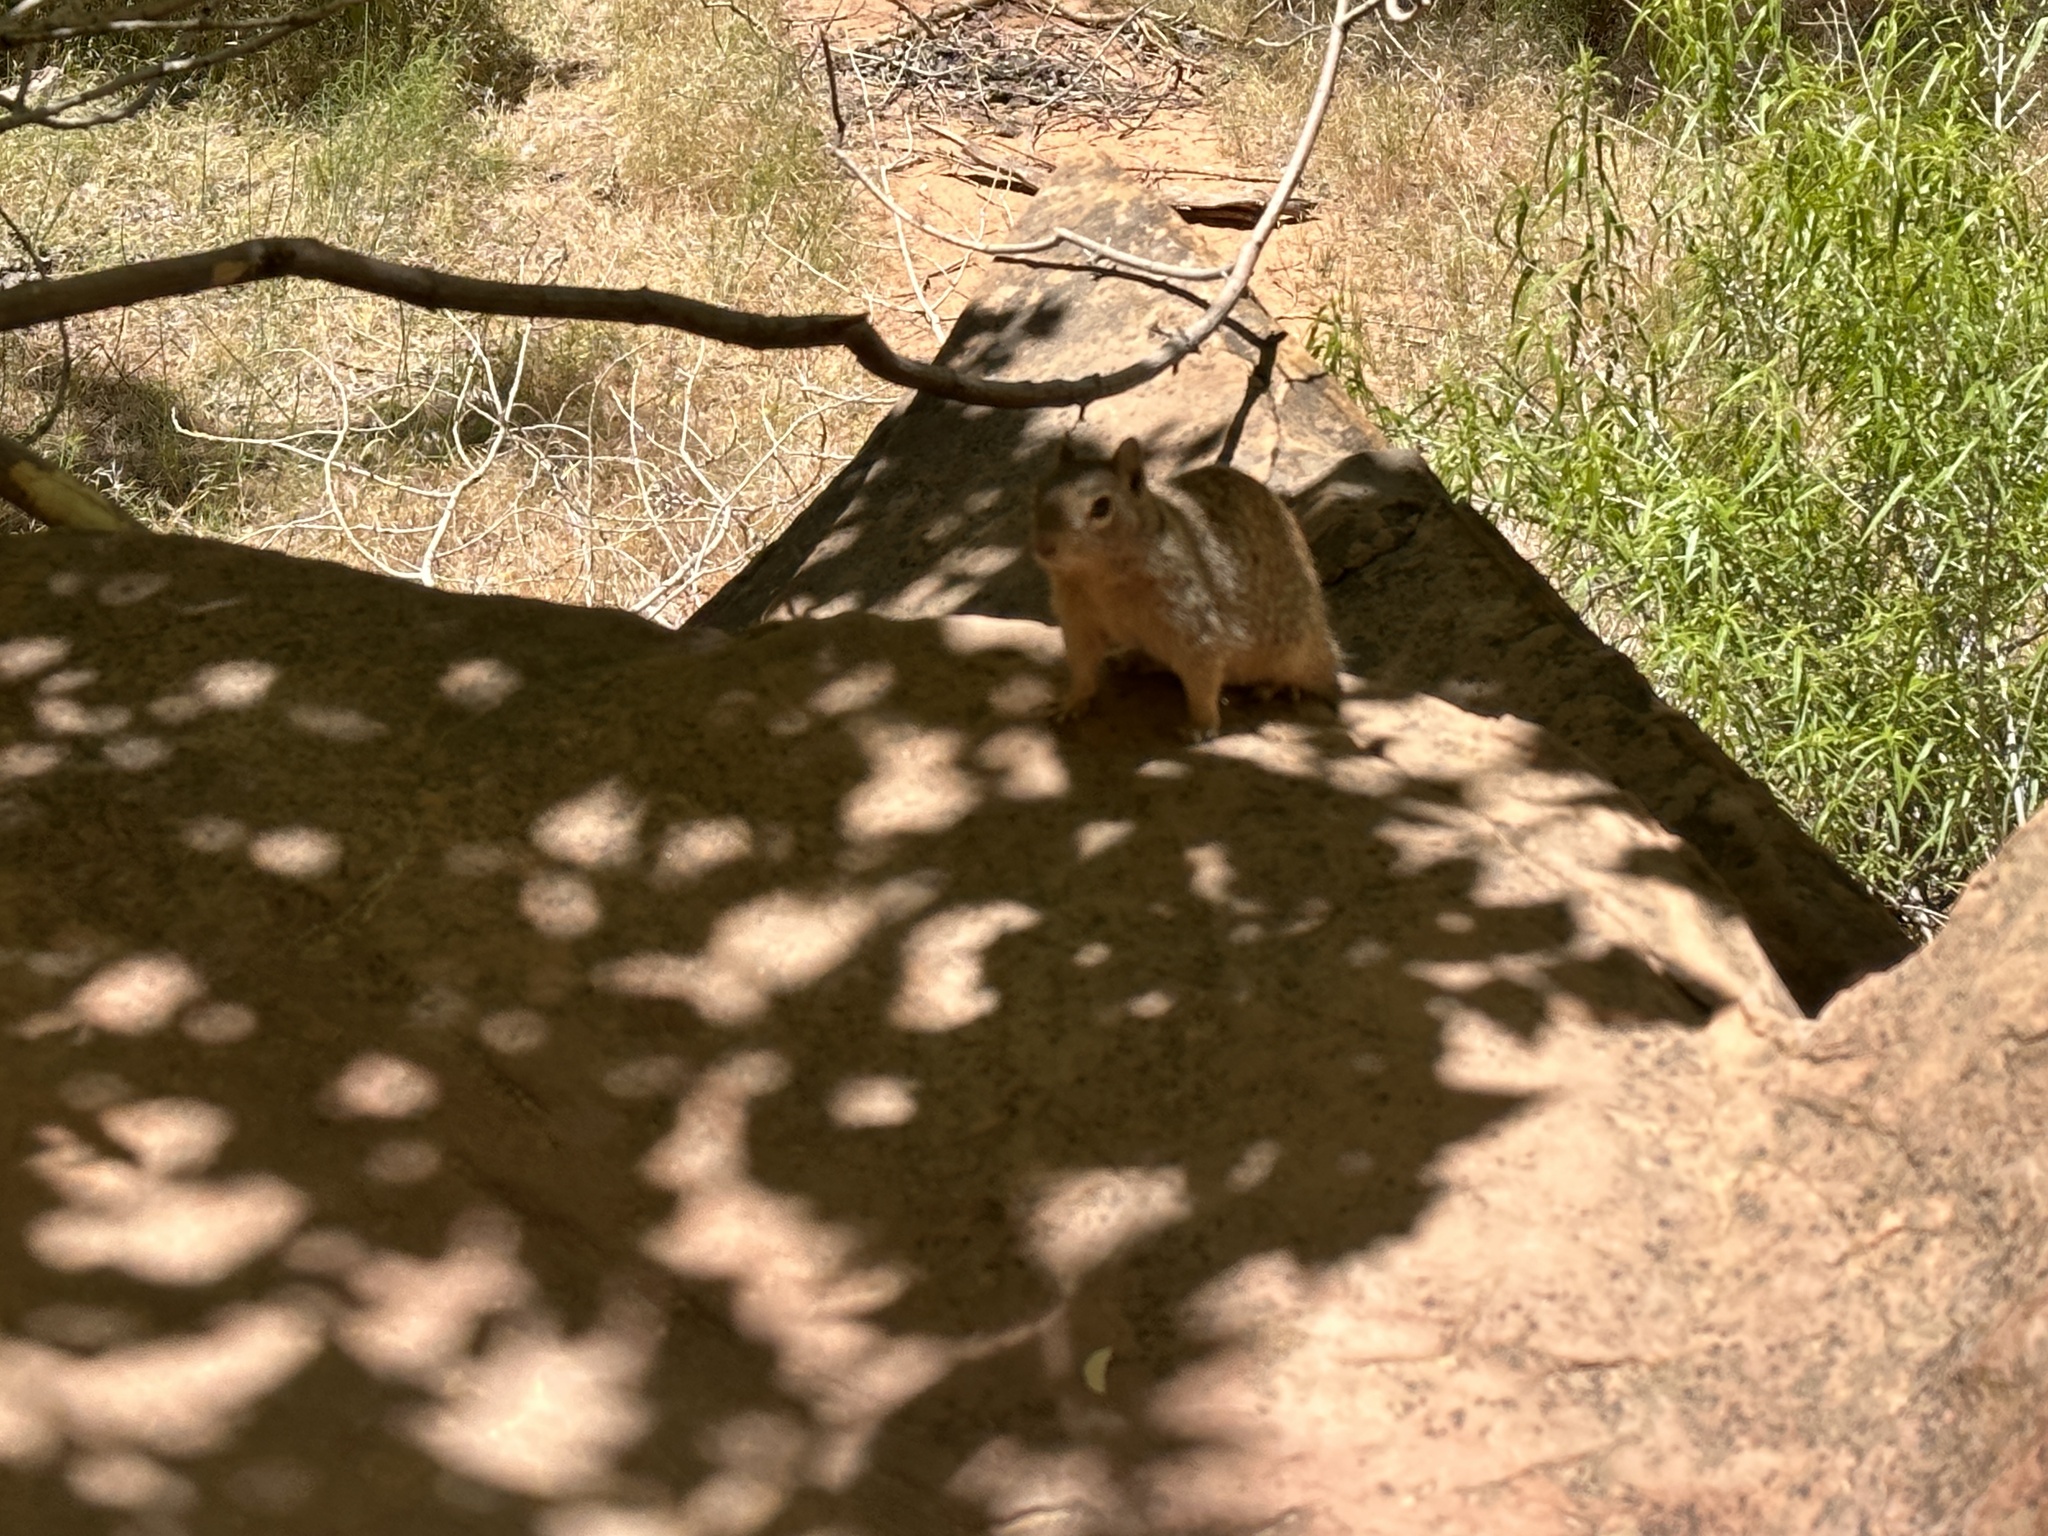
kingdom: Animalia
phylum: Chordata
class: Mammalia
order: Rodentia
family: Sciuridae
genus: Otospermophilus
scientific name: Otospermophilus variegatus
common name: Rock squirrel
